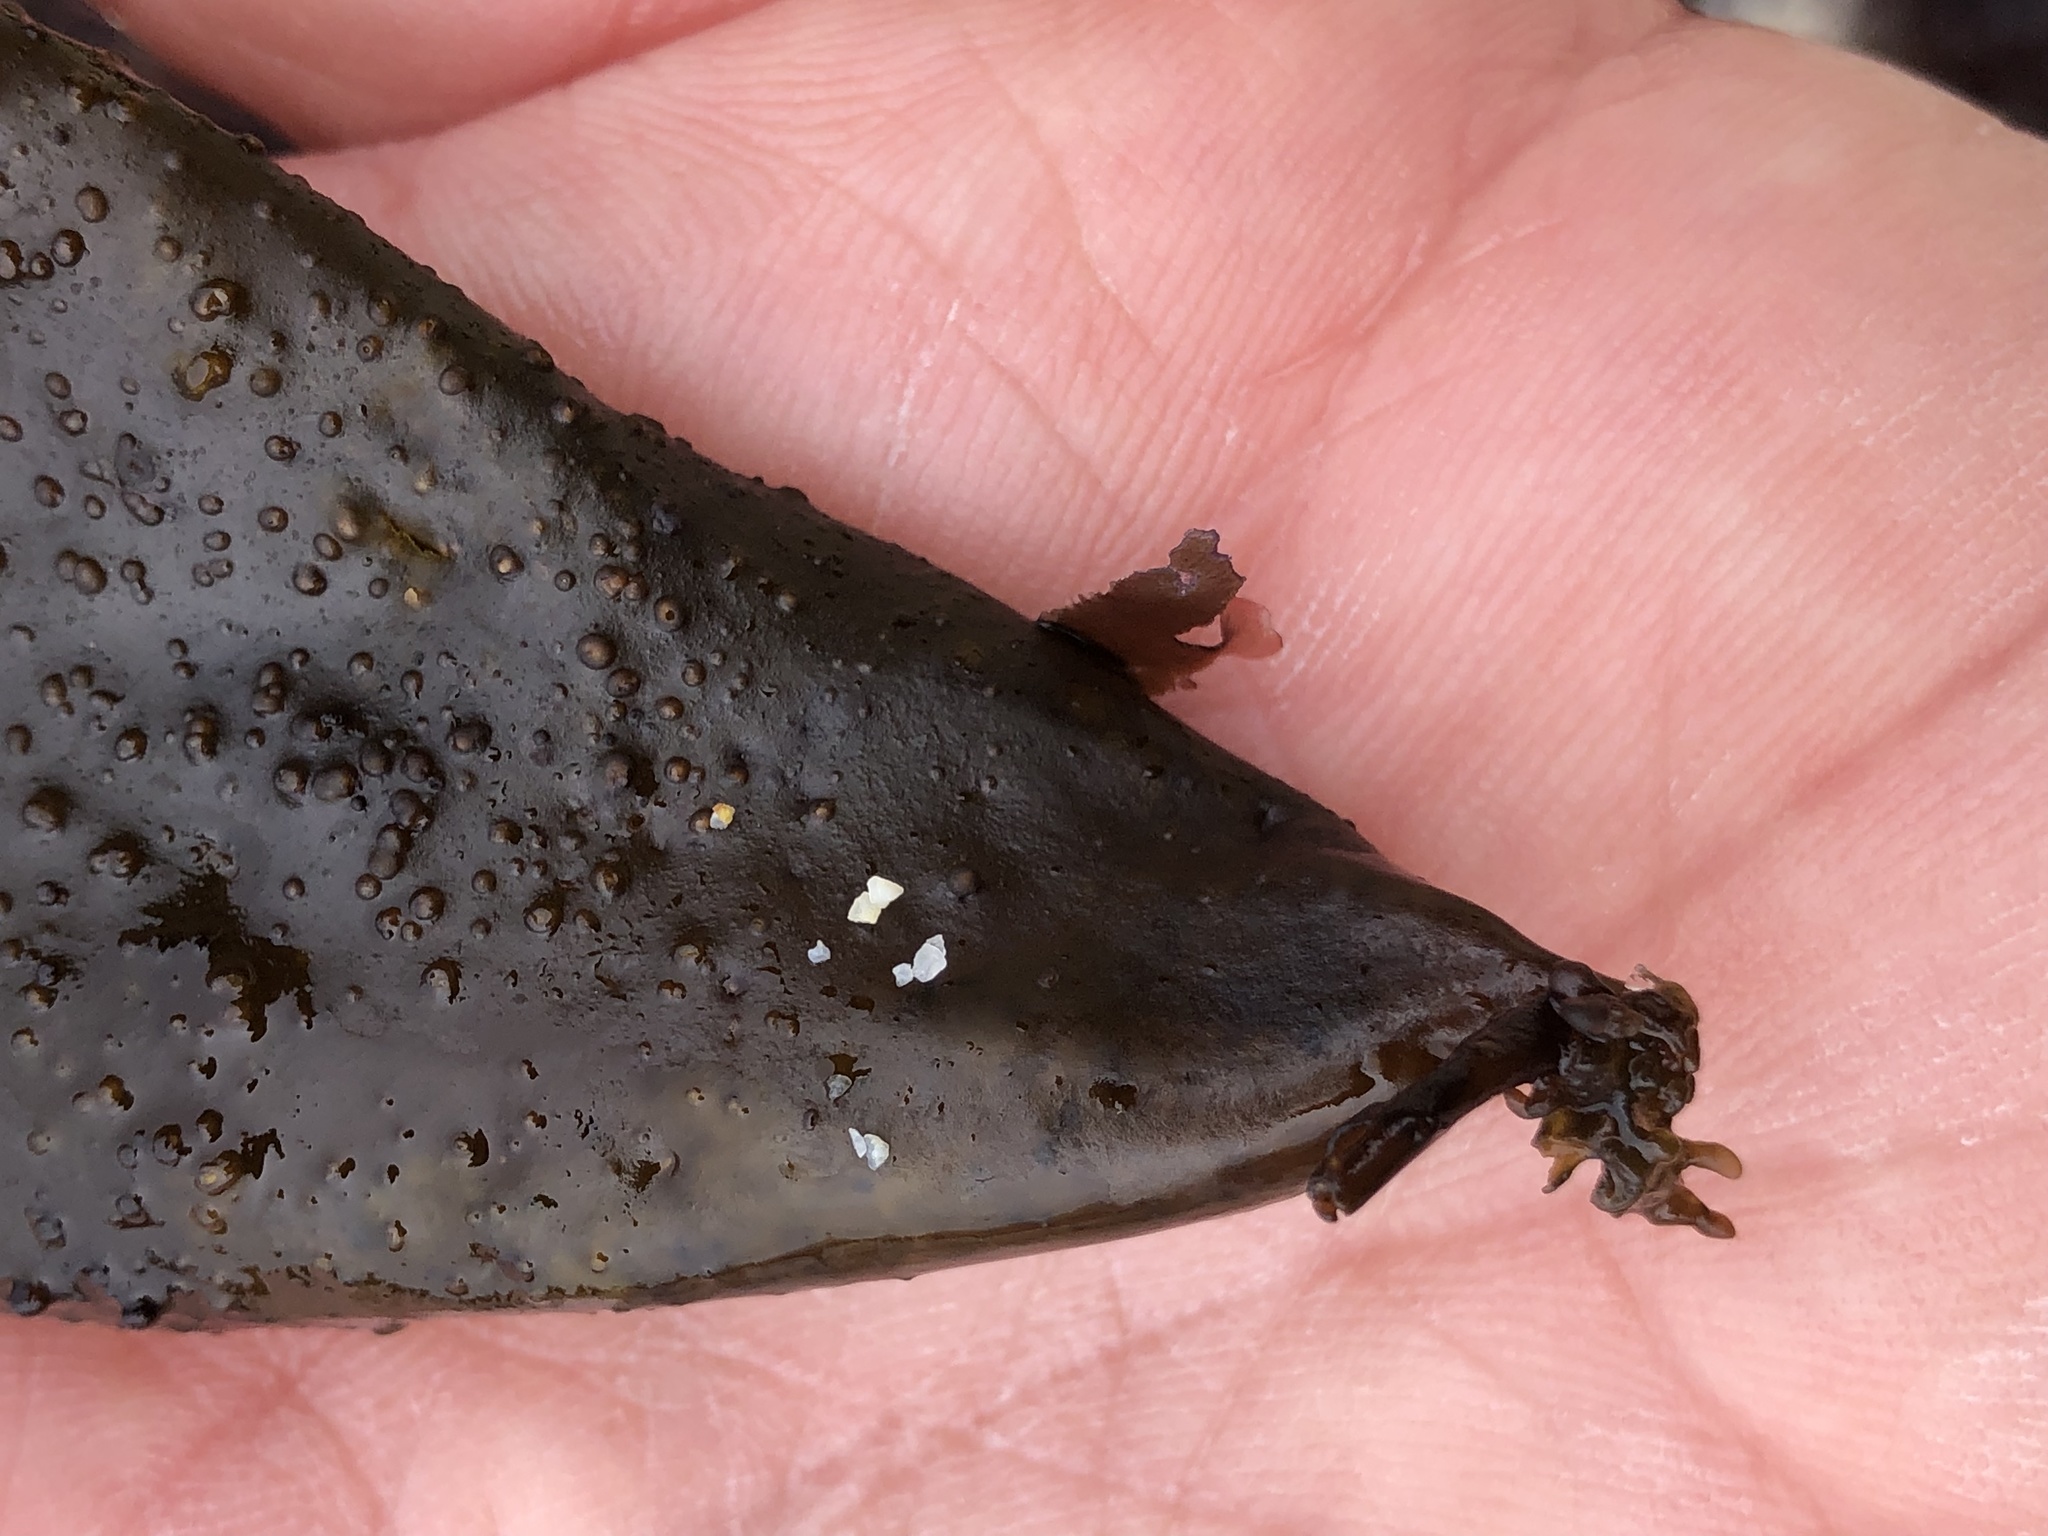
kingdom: Plantae
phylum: Rhodophyta
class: Florideophyceae
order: Palmariales
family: Palmariaceae
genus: Halosaccion
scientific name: Halosaccion glandiforme
